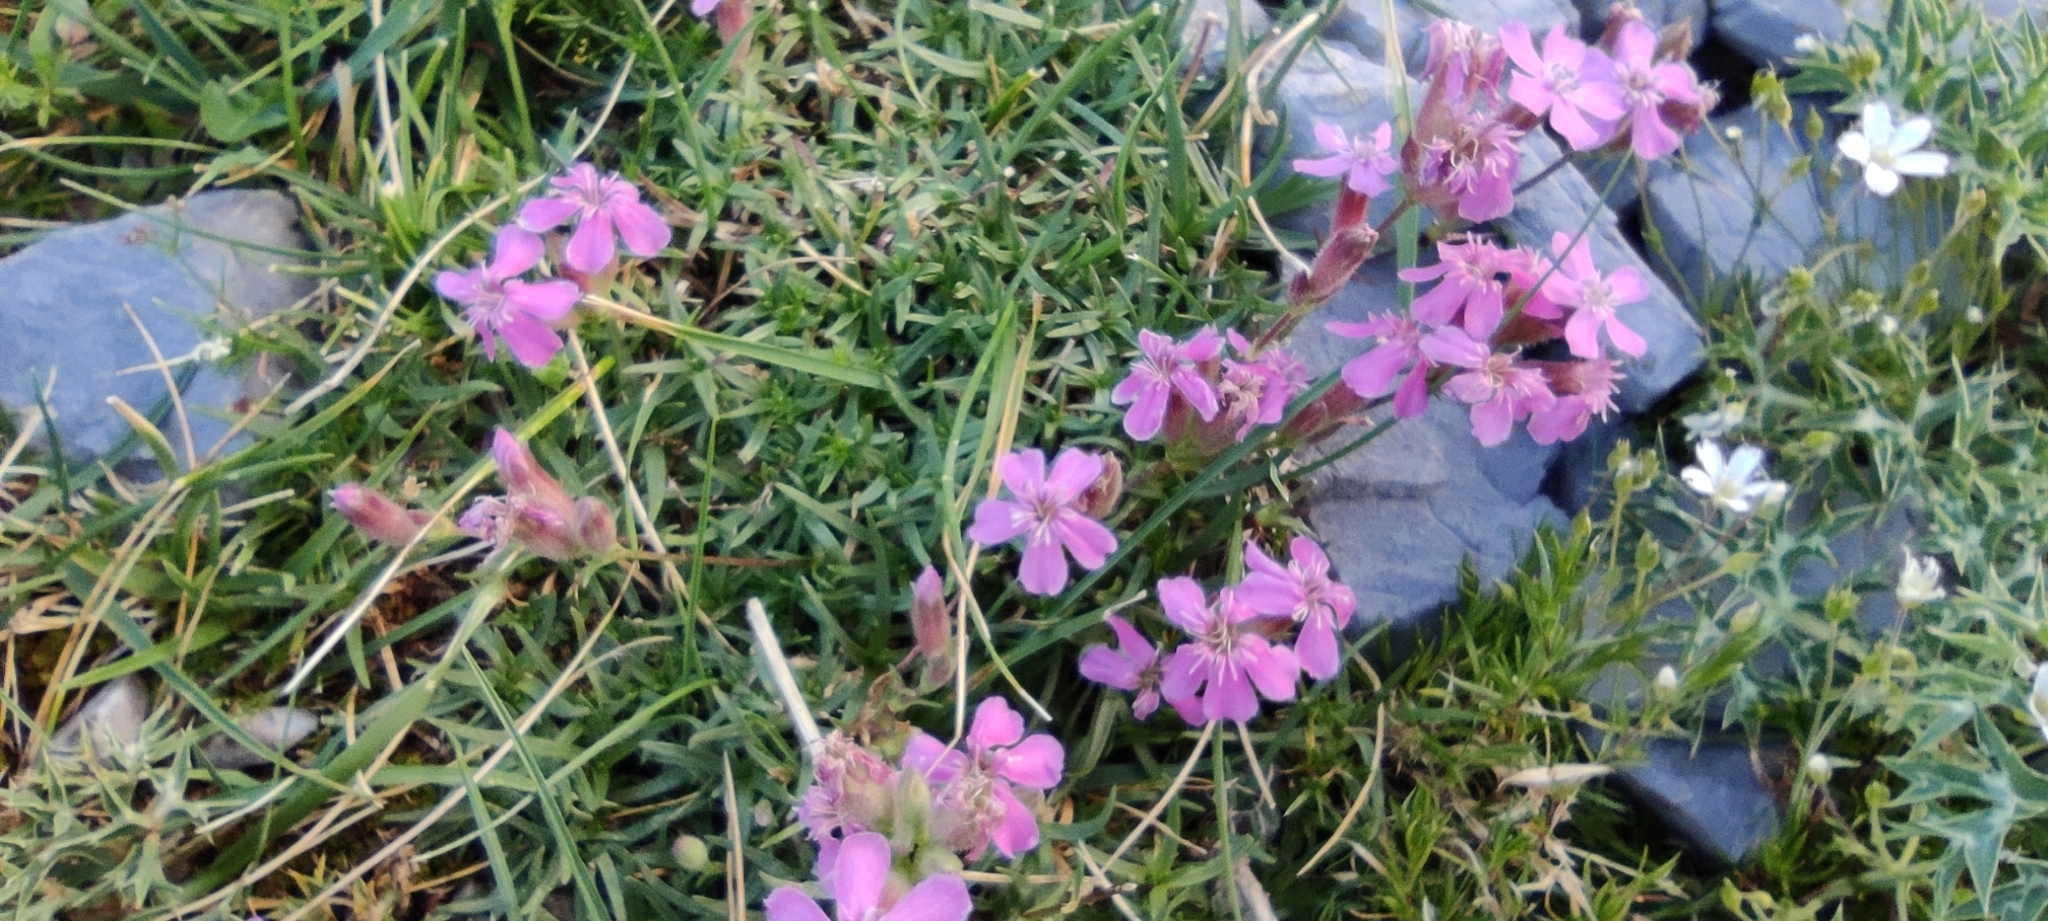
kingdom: Plantae
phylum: Tracheophyta
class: Magnoliopsida
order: Caryophyllales
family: Caryophyllaceae
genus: Saponaria
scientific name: Saponaria caespitosa
